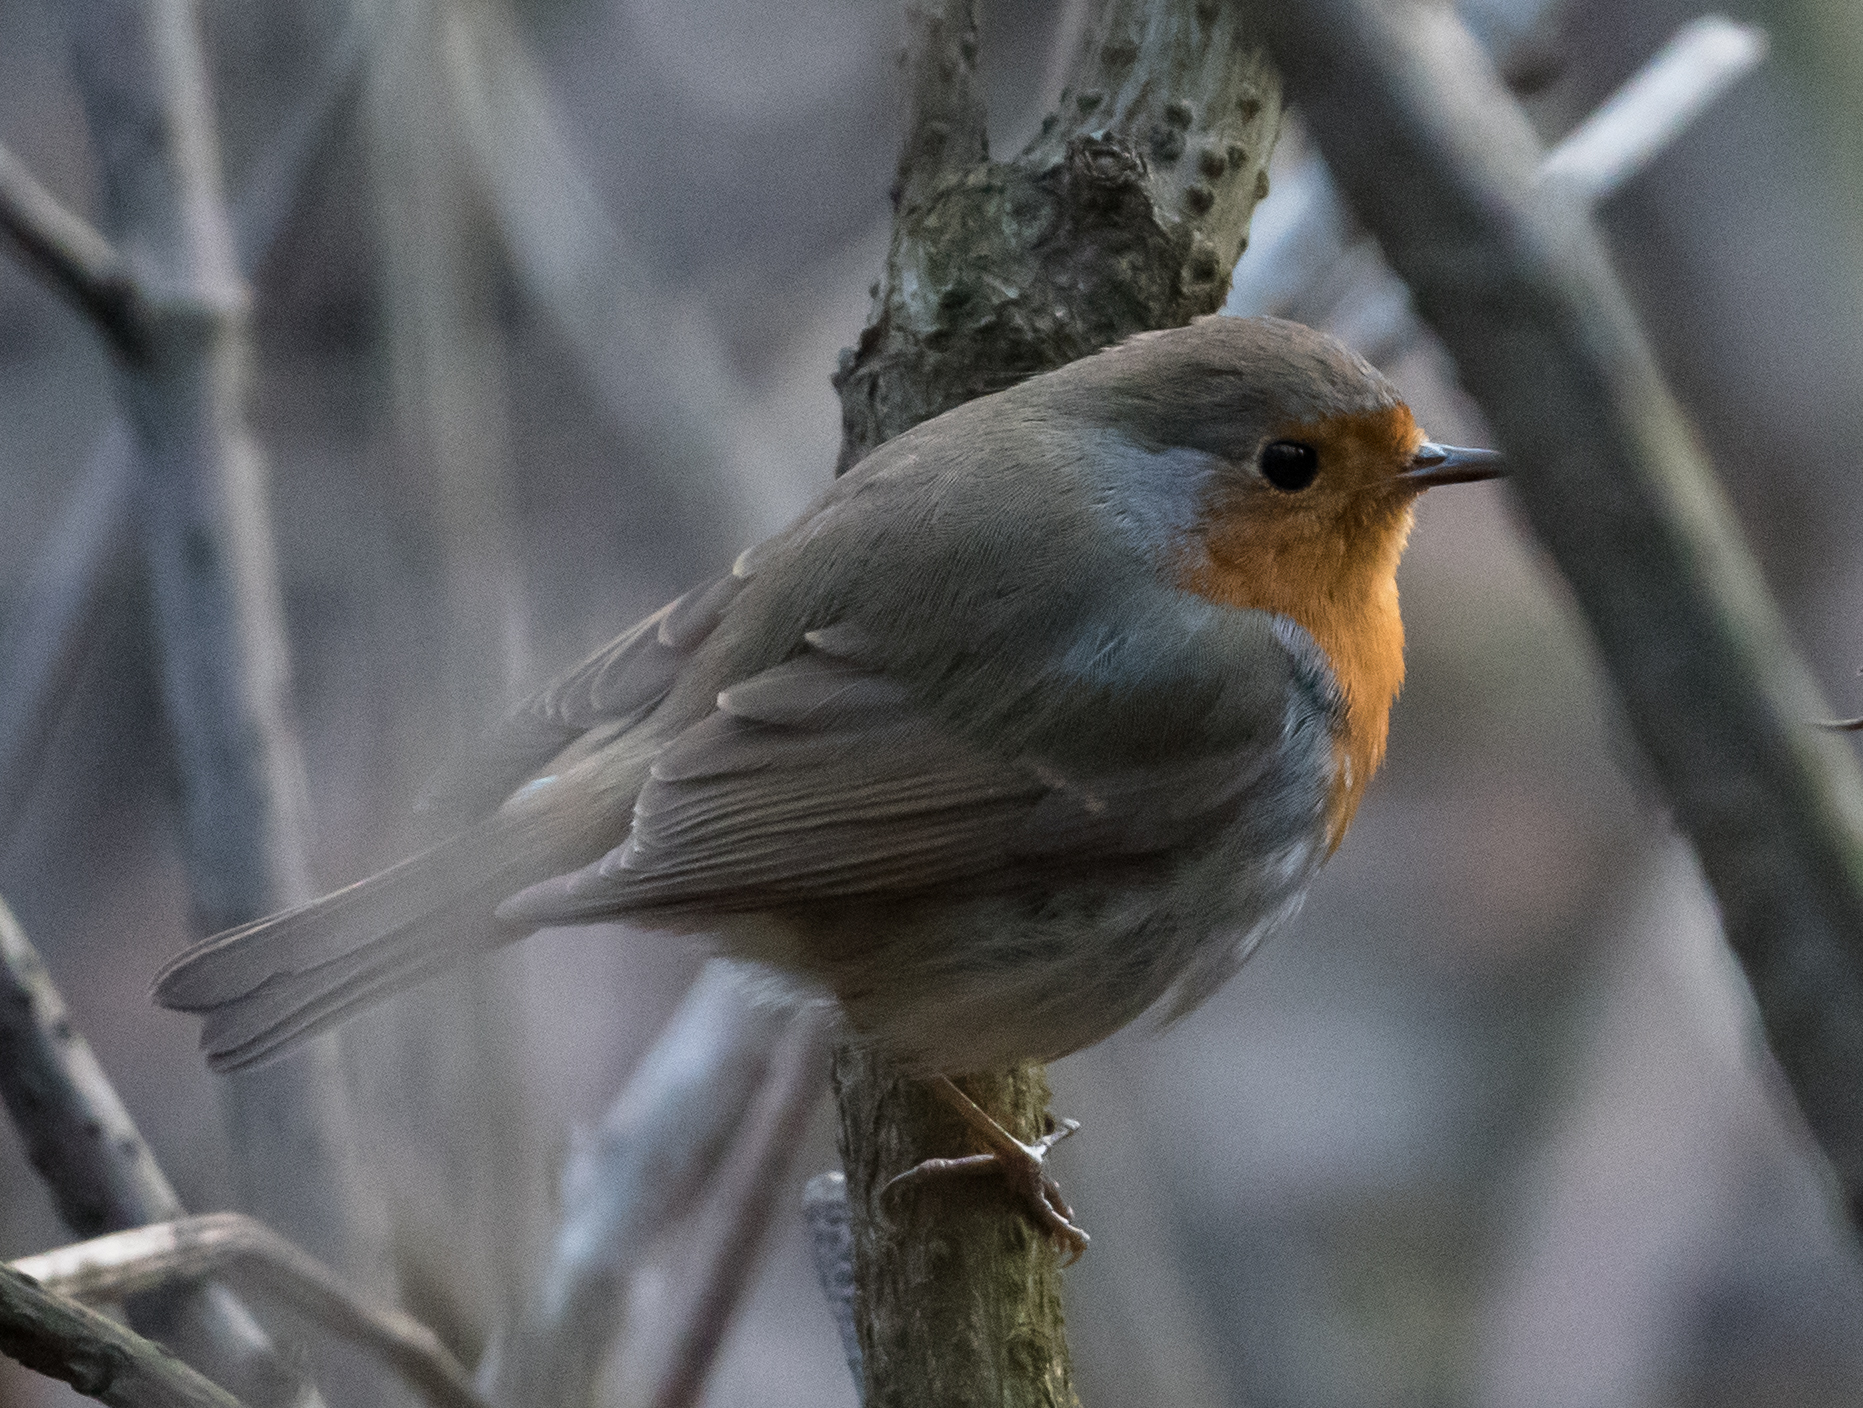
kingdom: Animalia
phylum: Chordata
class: Aves
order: Passeriformes
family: Muscicapidae
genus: Erithacus
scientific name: Erithacus rubecula
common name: European robin
